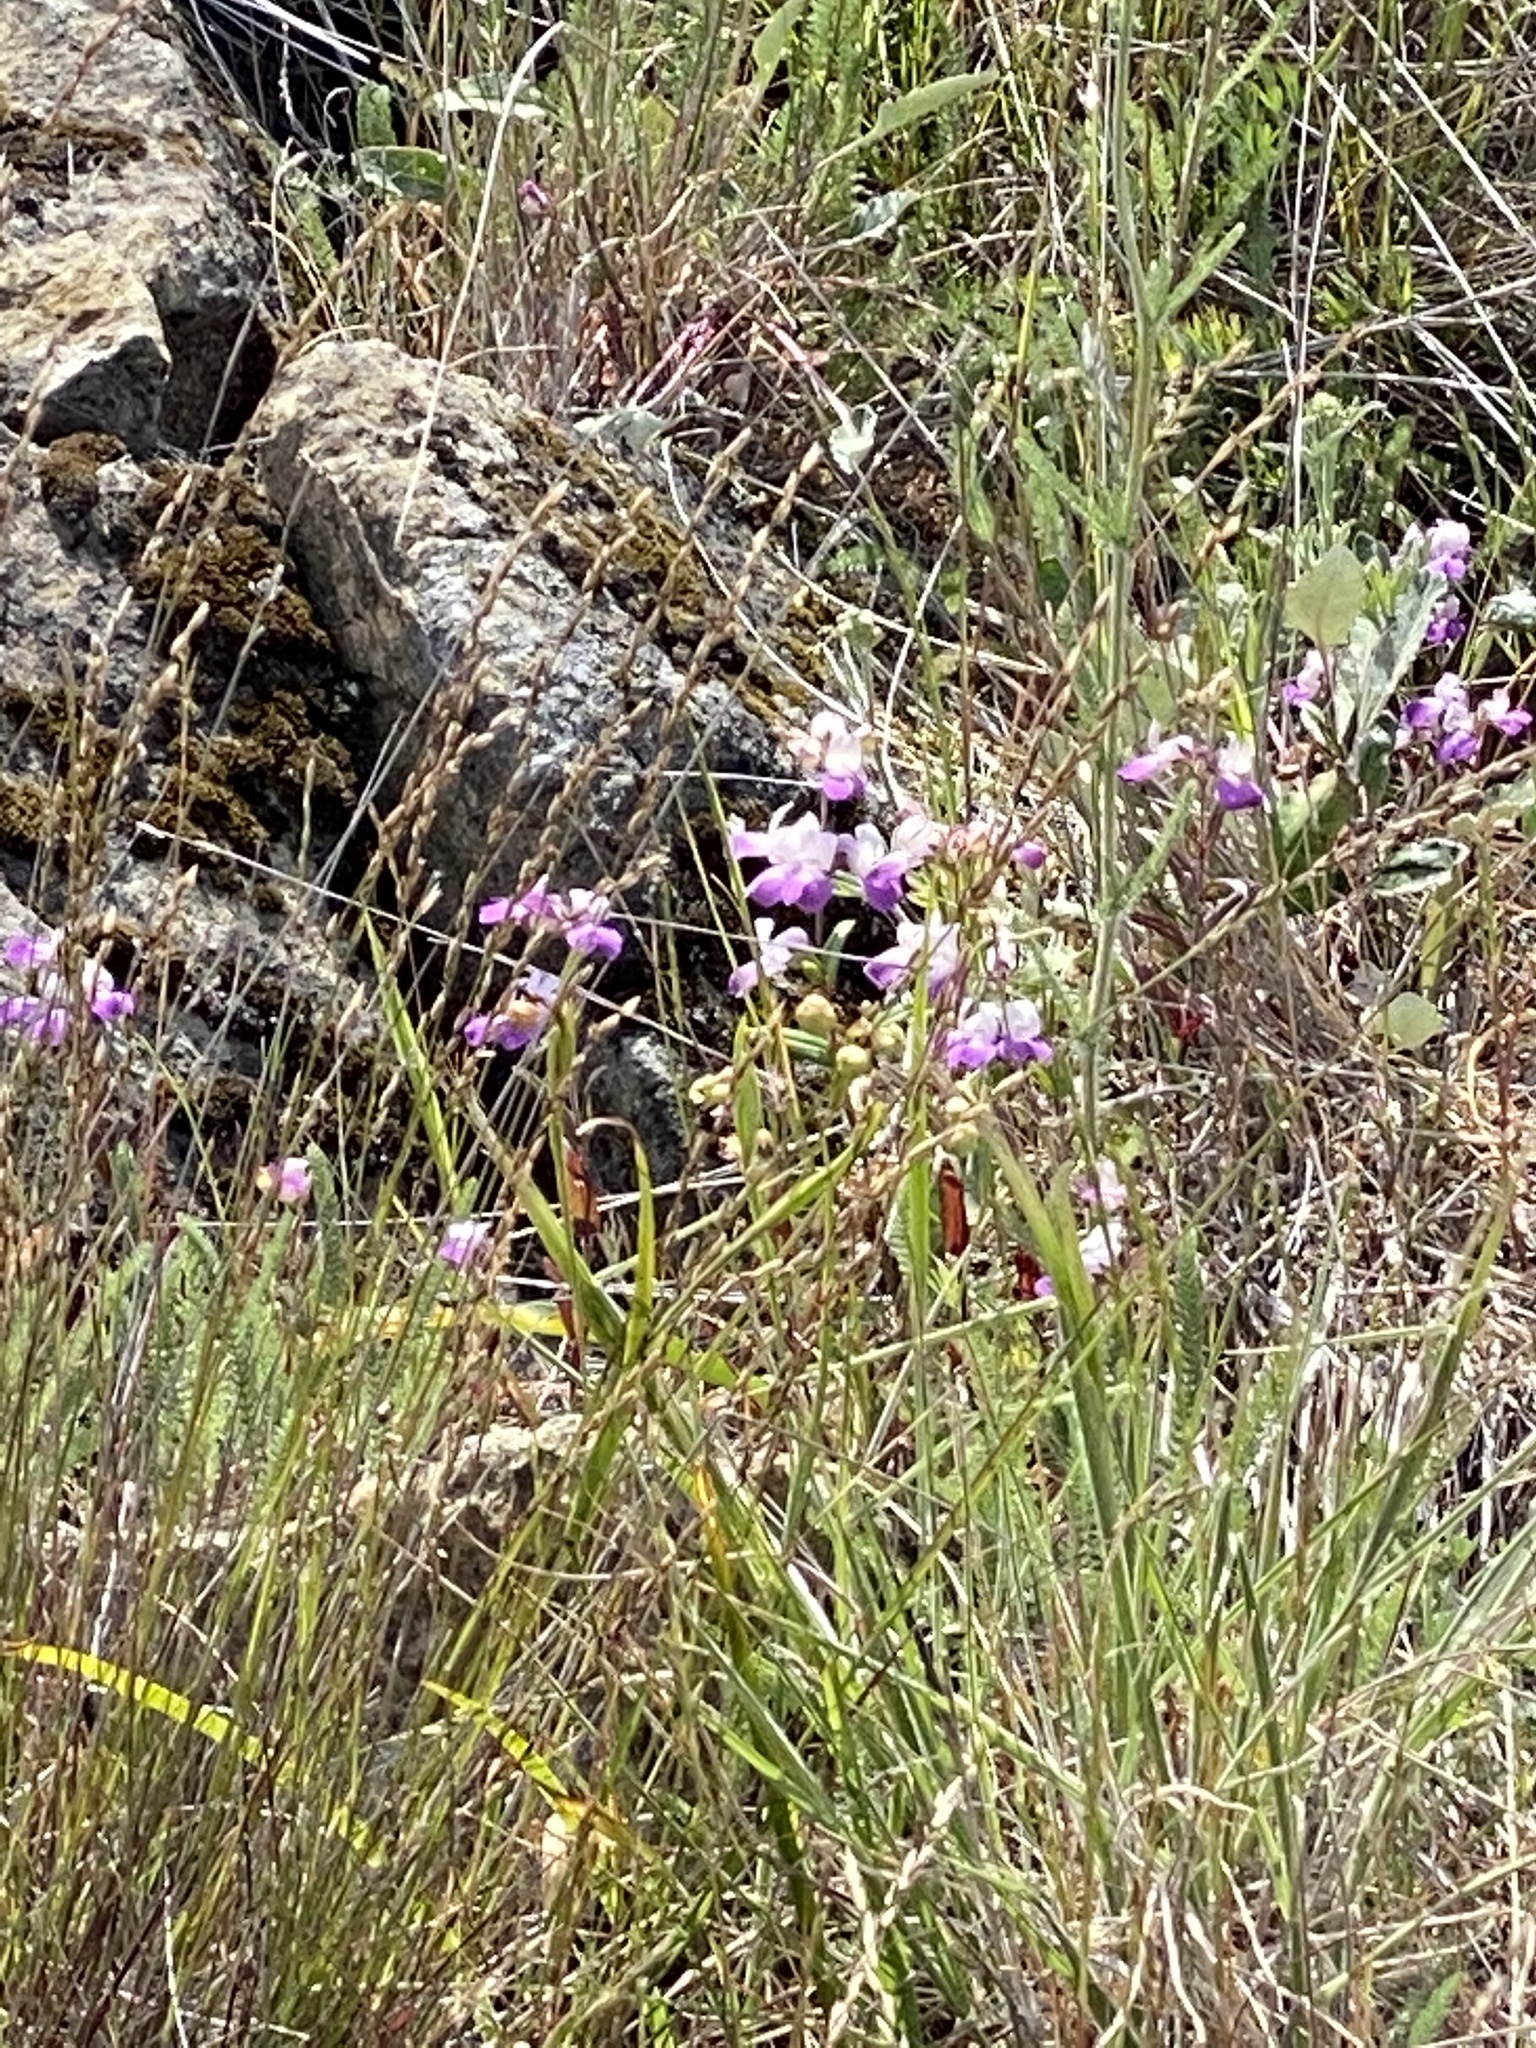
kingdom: Plantae
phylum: Tracheophyta
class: Magnoliopsida
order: Lamiales
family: Plantaginaceae
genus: Collinsia
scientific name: Collinsia heterophylla
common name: Chinese-houses
